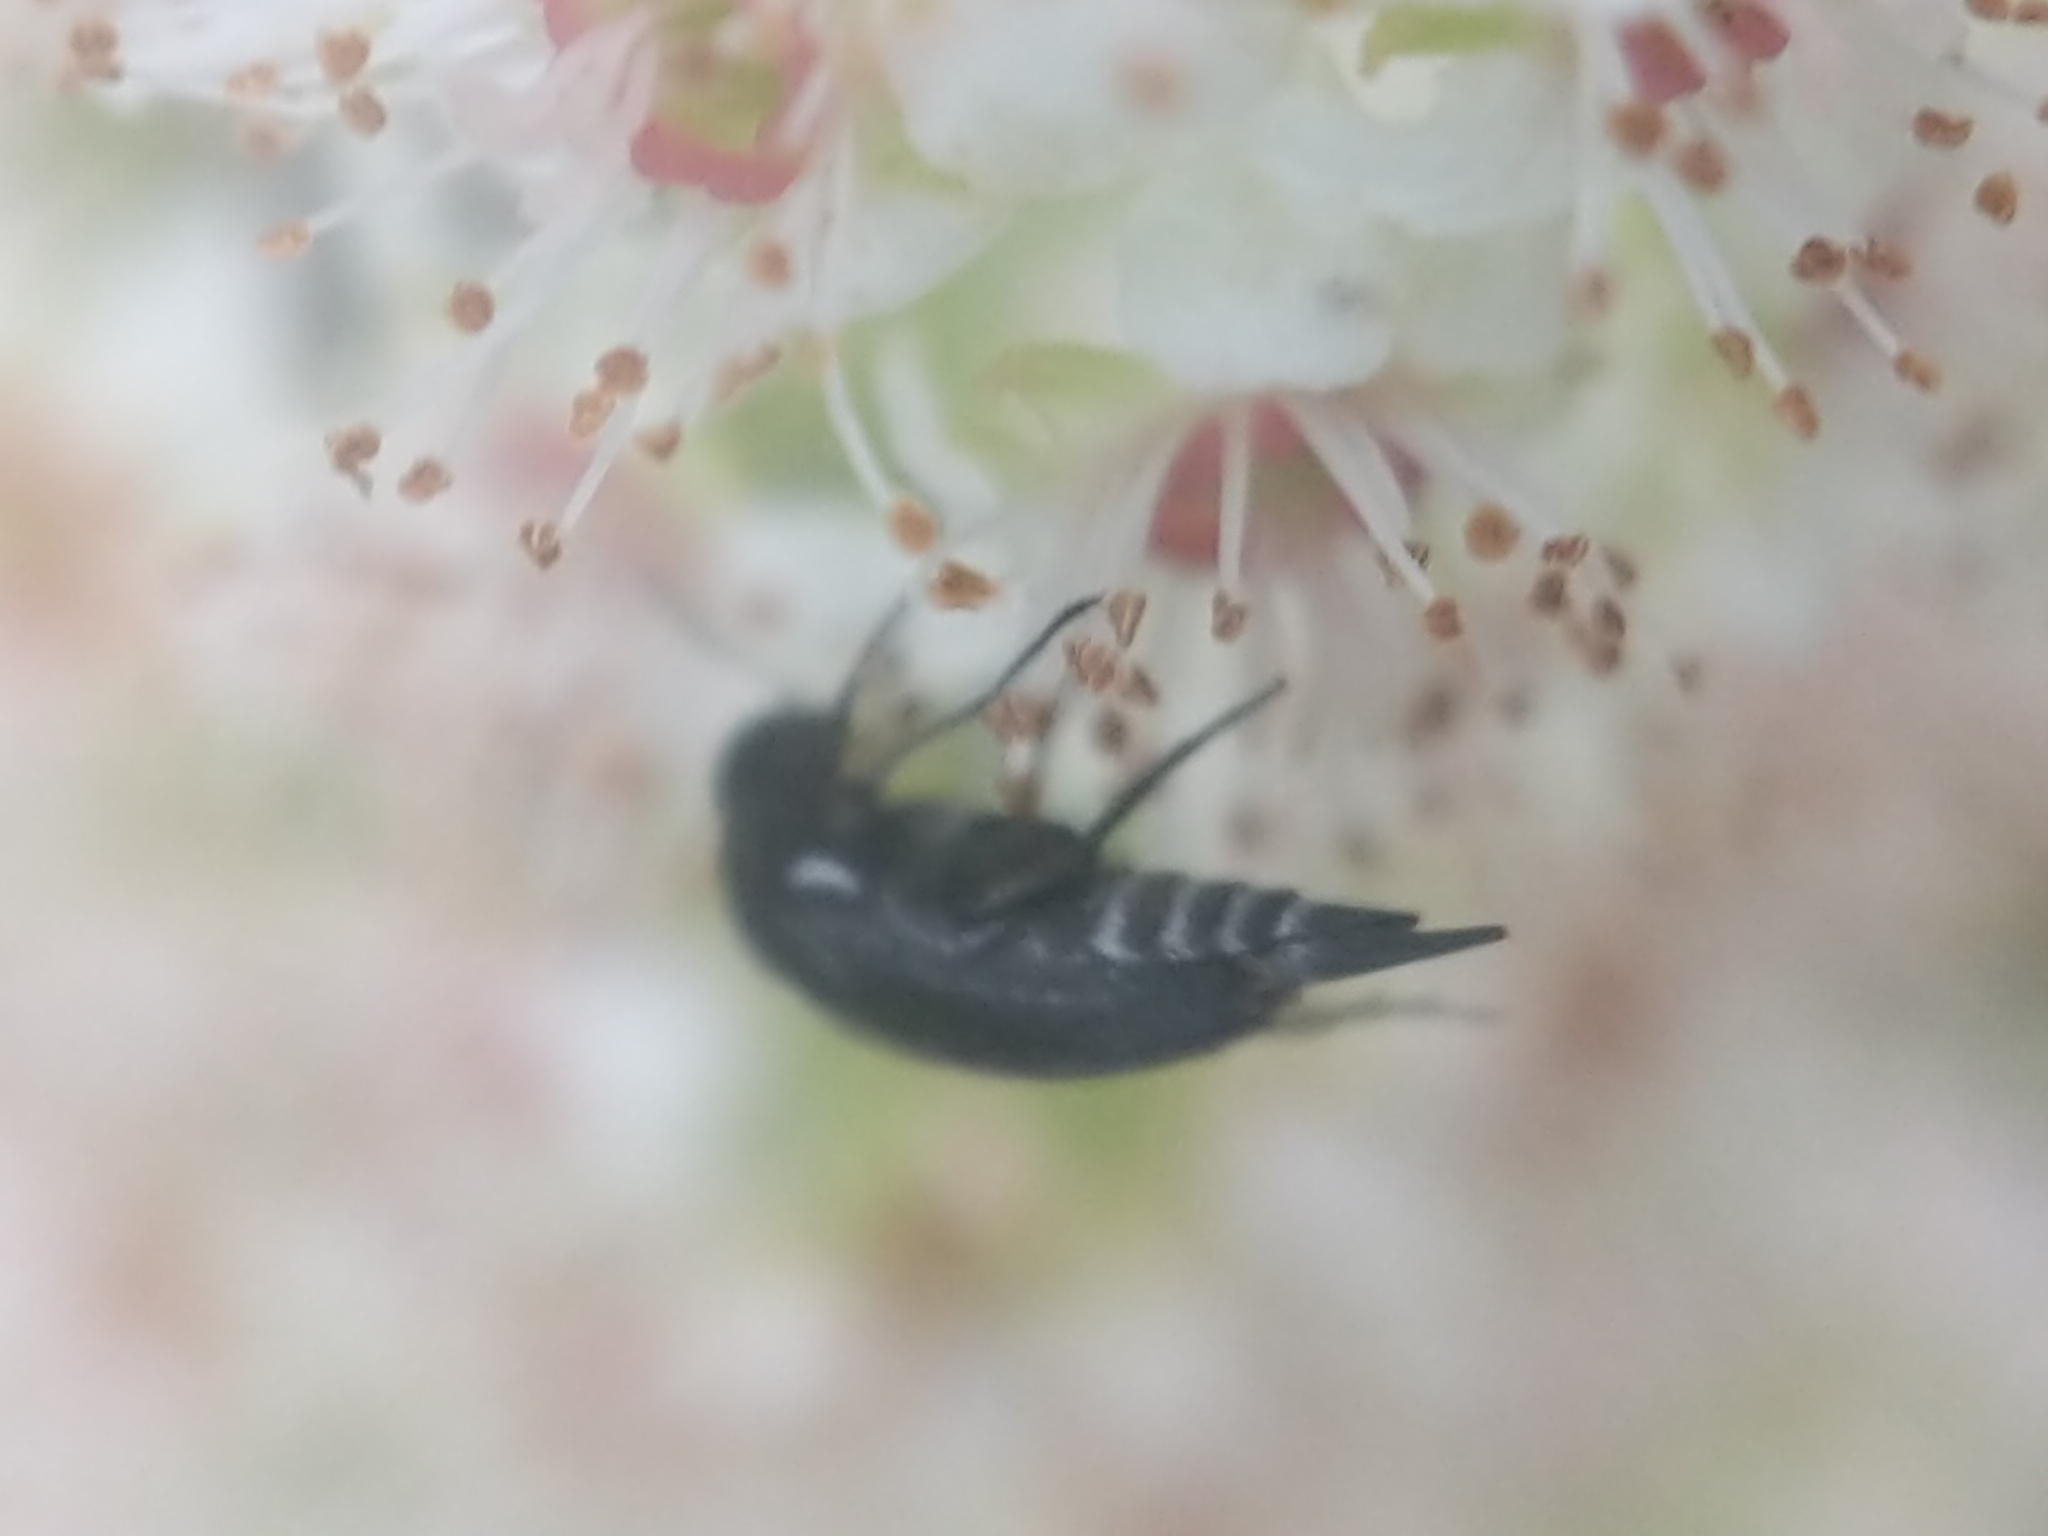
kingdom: Animalia
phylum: Arthropoda
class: Insecta
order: Coleoptera
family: Mordellidae
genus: Mordella
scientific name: Mordella marginata
